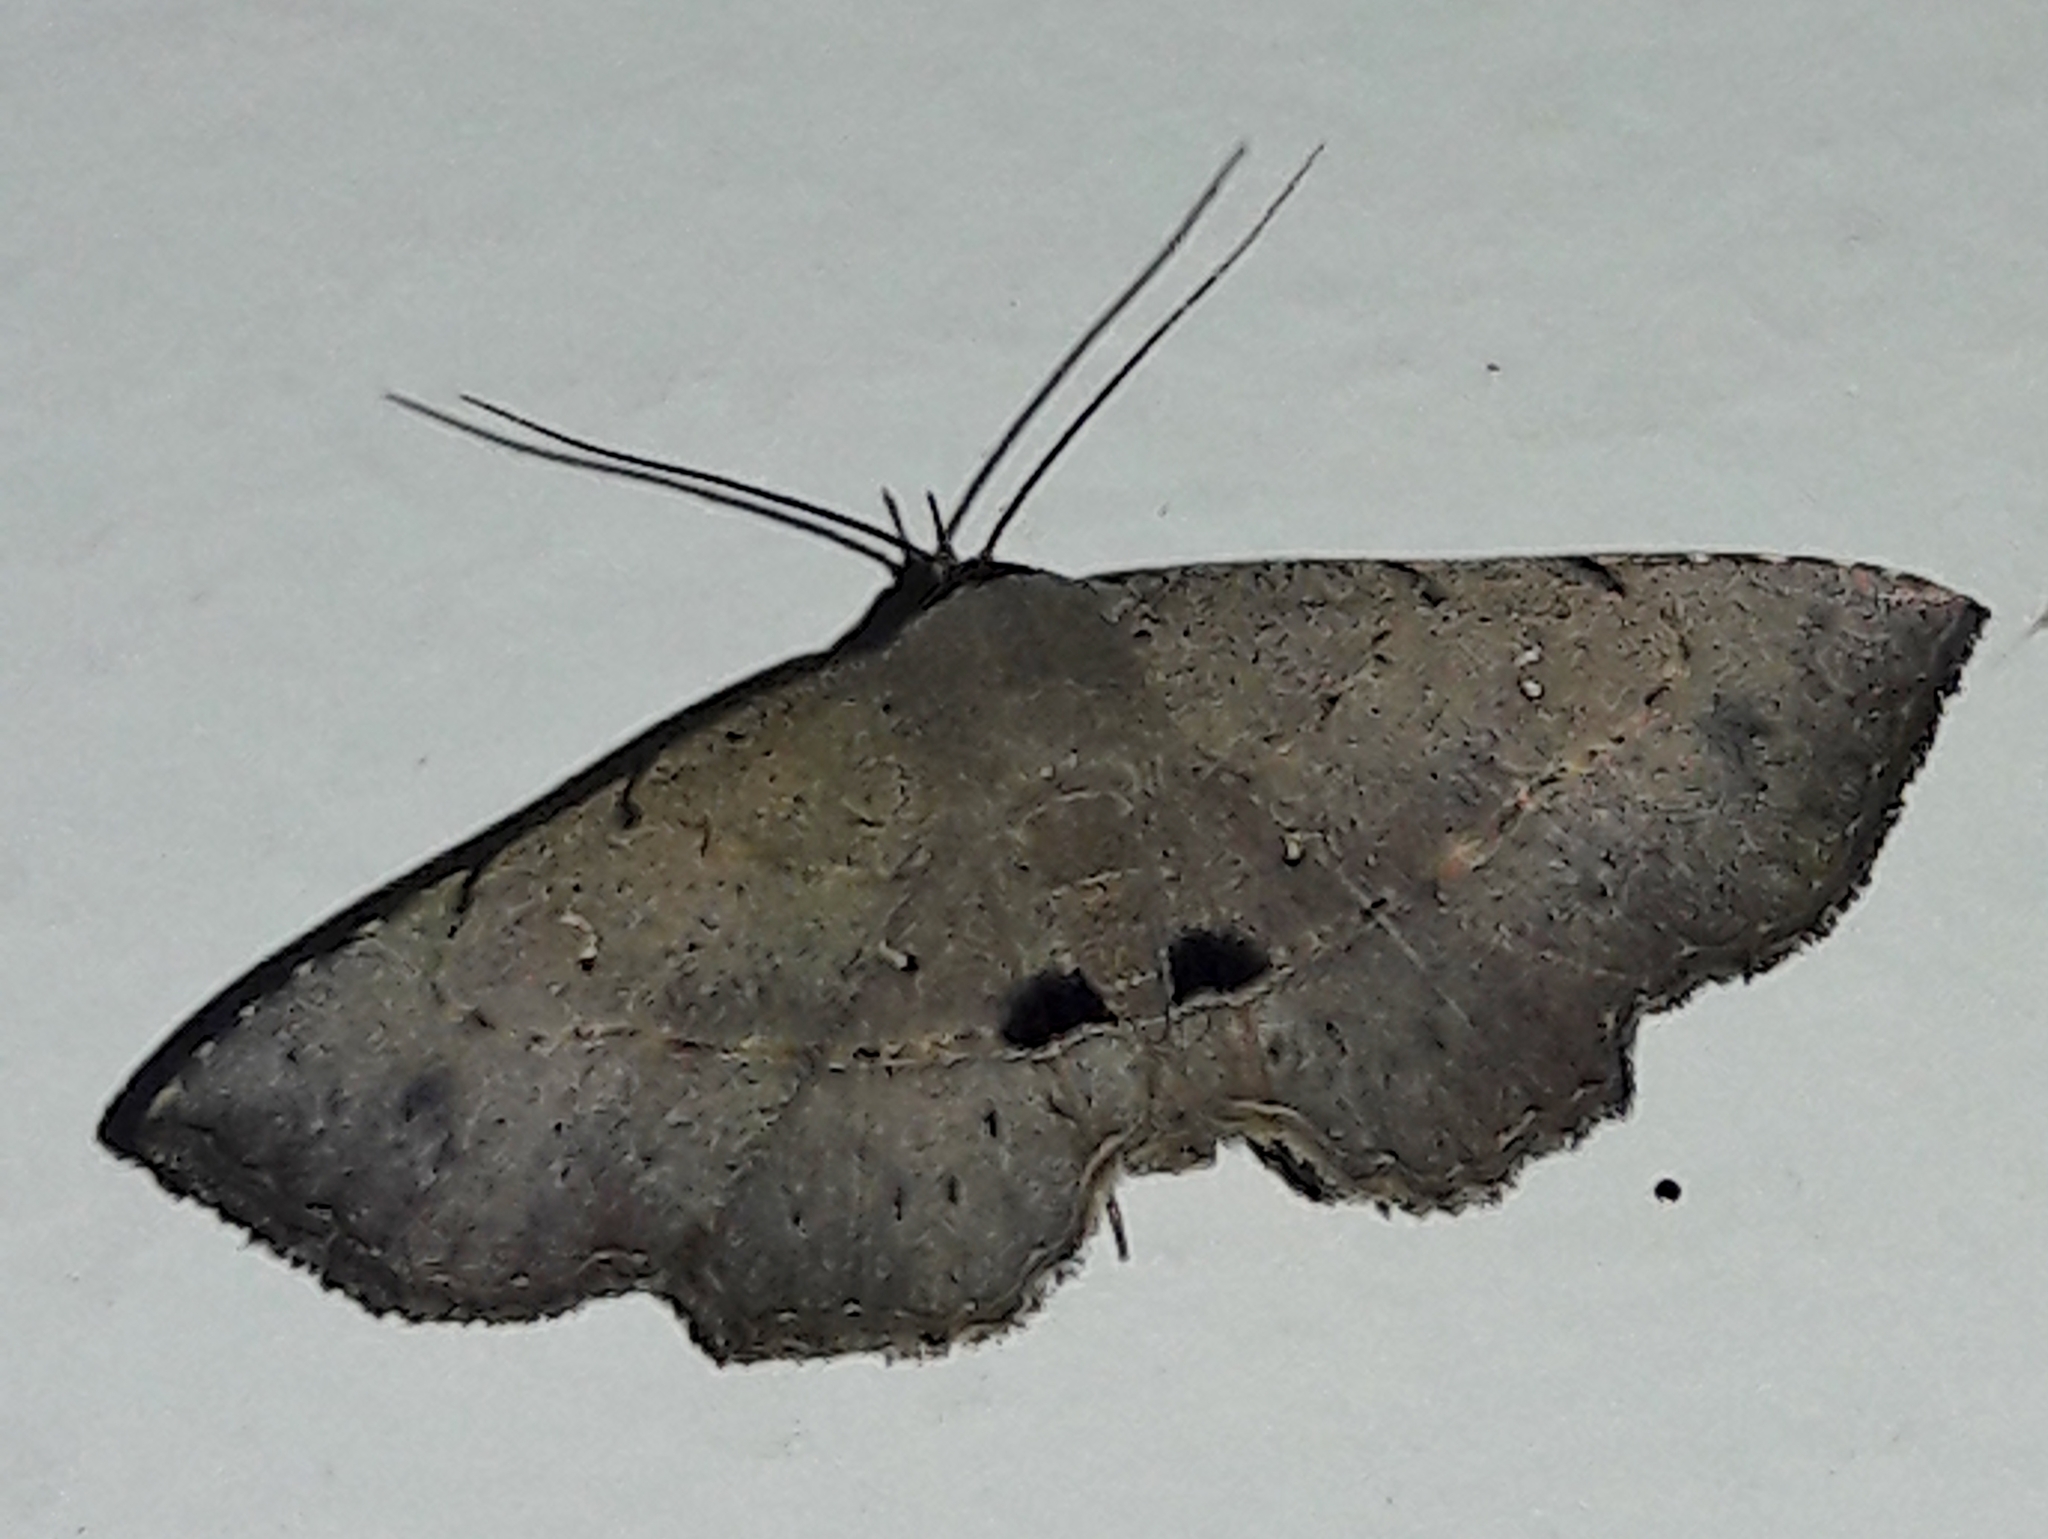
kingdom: Animalia
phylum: Arthropoda
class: Insecta
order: Lepidoptera
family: Erebidae
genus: Renodes
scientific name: Renodes curviluna
